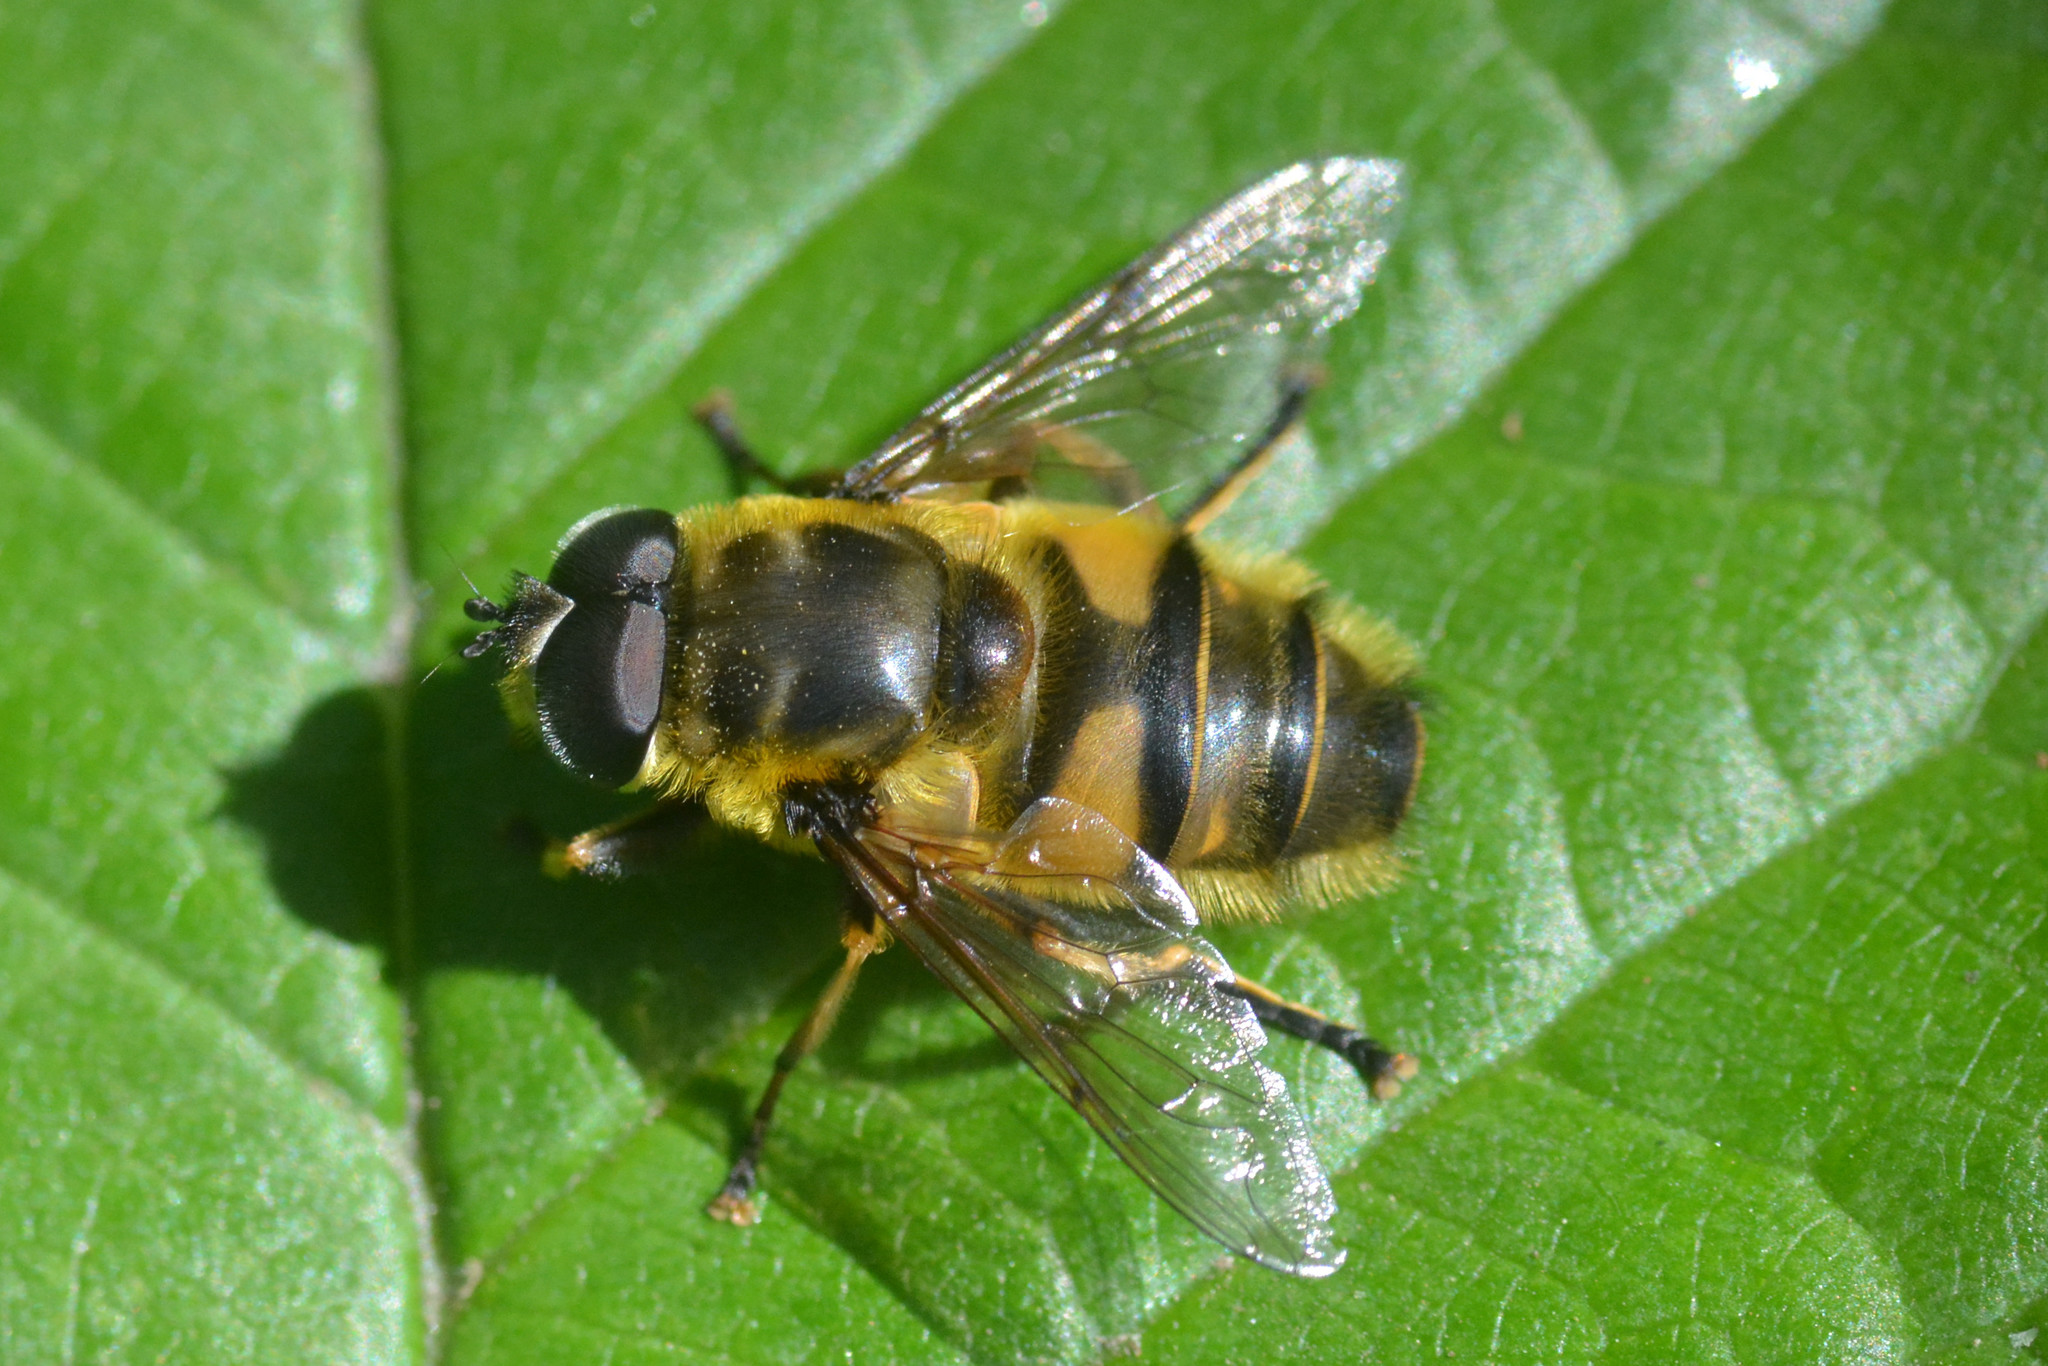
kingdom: Animalia
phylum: Arthropoda
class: Insecta
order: Diptera
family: Syrphidae
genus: Myathropa
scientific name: Myathropa florea
